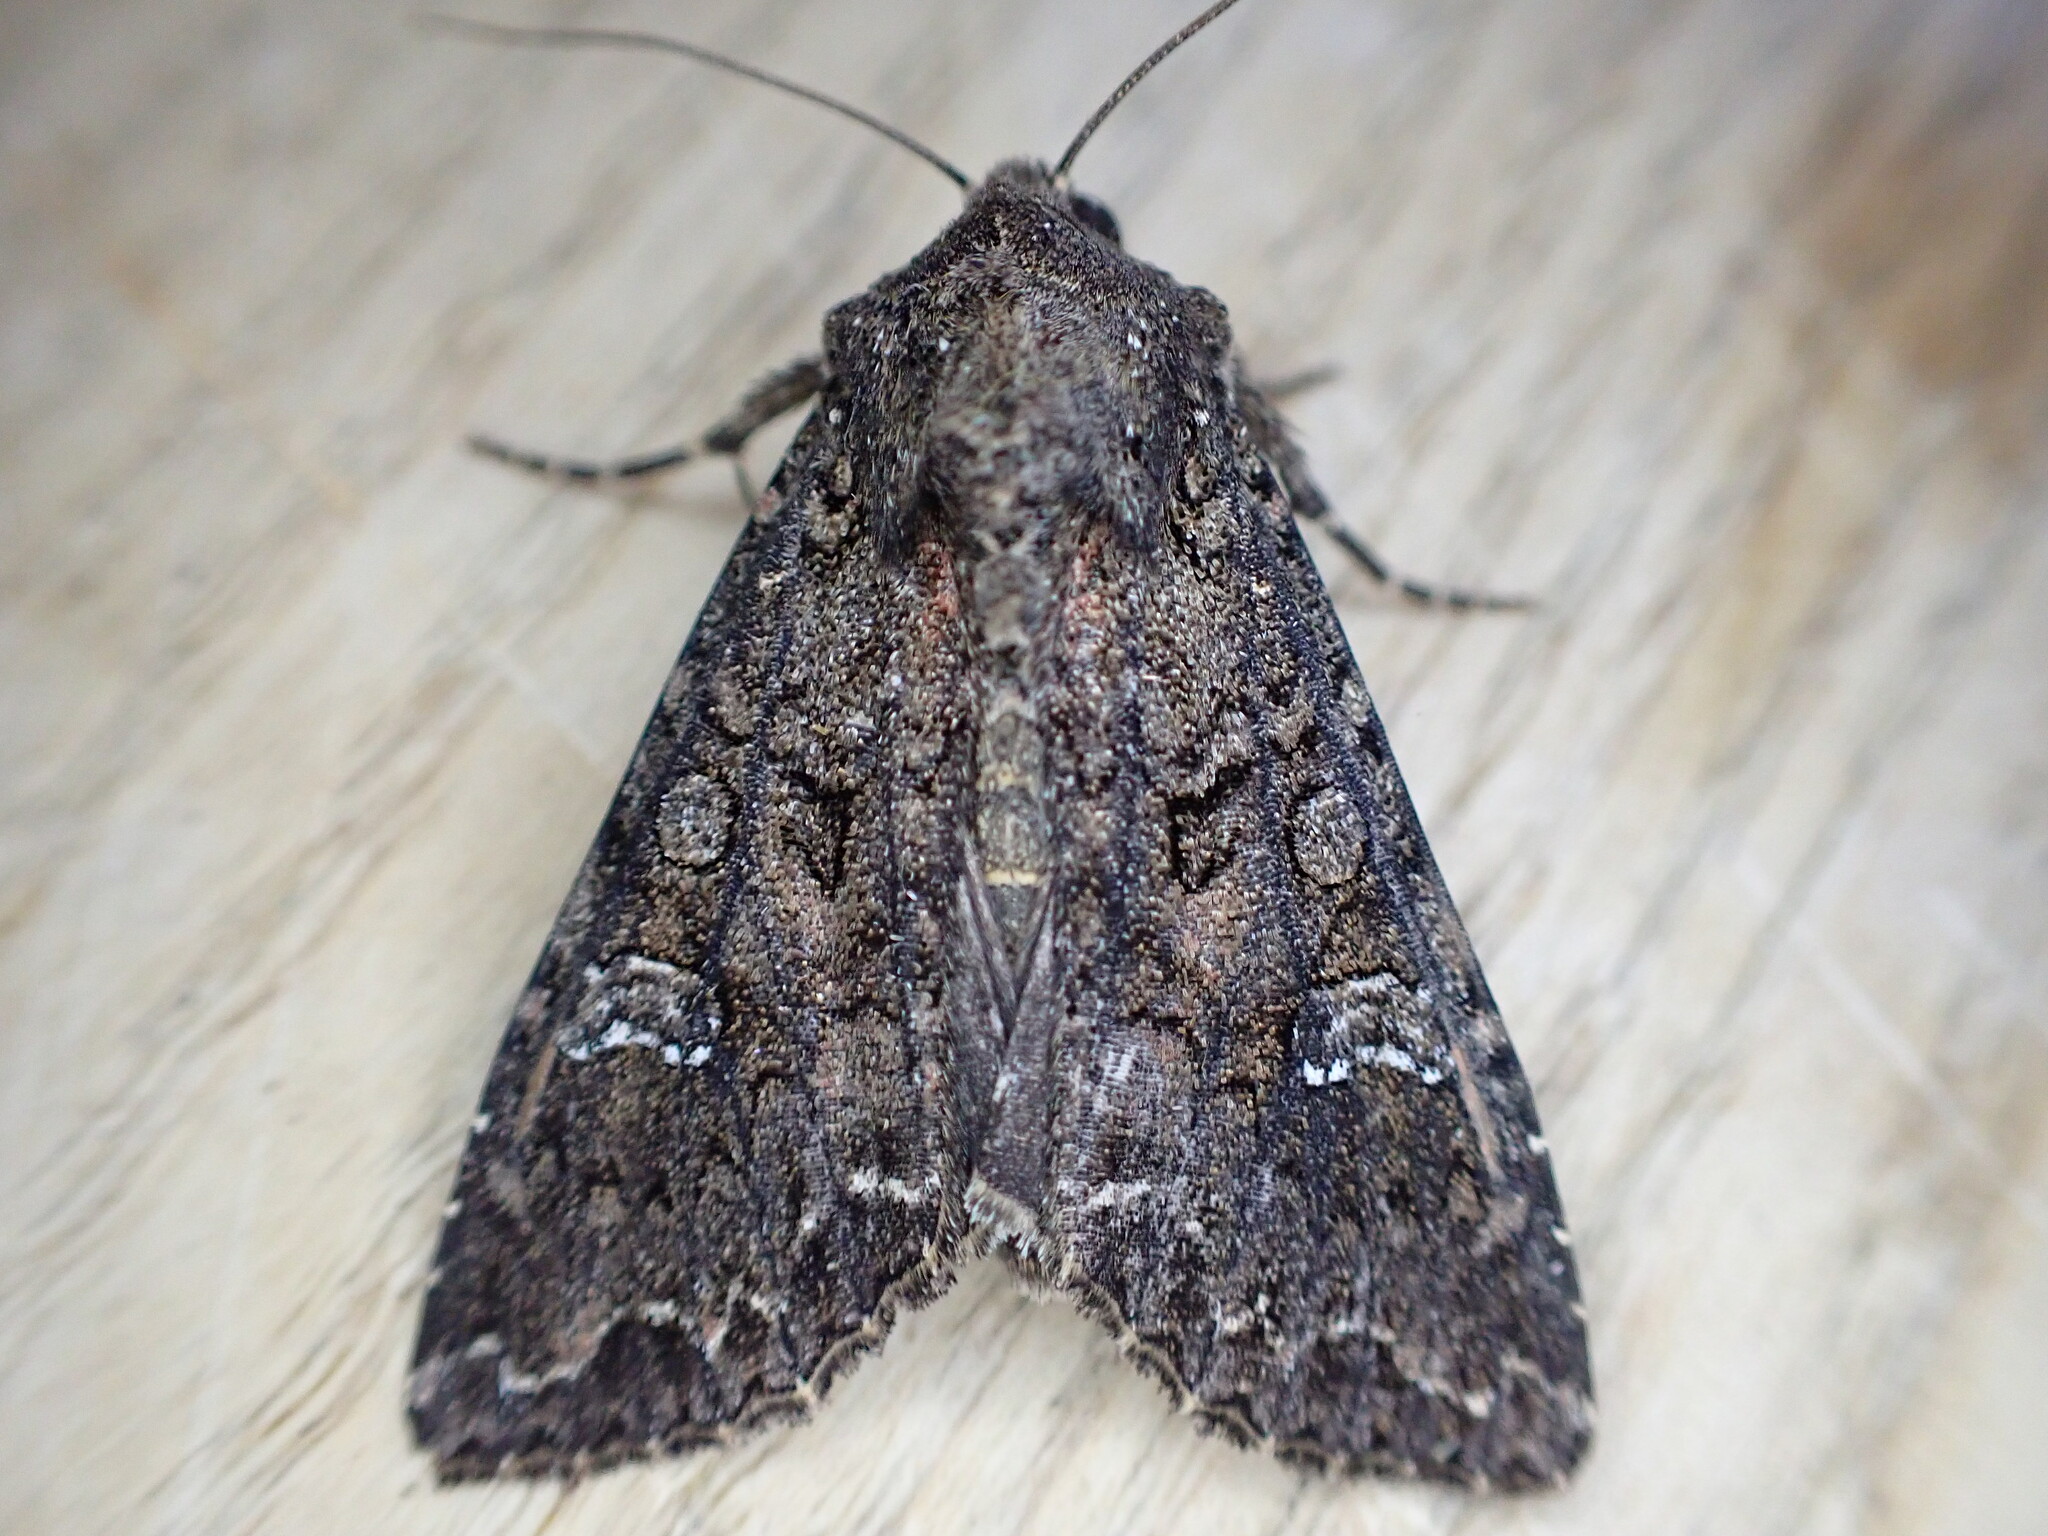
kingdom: Animalia
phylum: Arthropoda
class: Insecta
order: Lepidoptera
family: Noctuidae
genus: Mamestra
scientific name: Mamestra brassicae
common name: Cabbage moth
